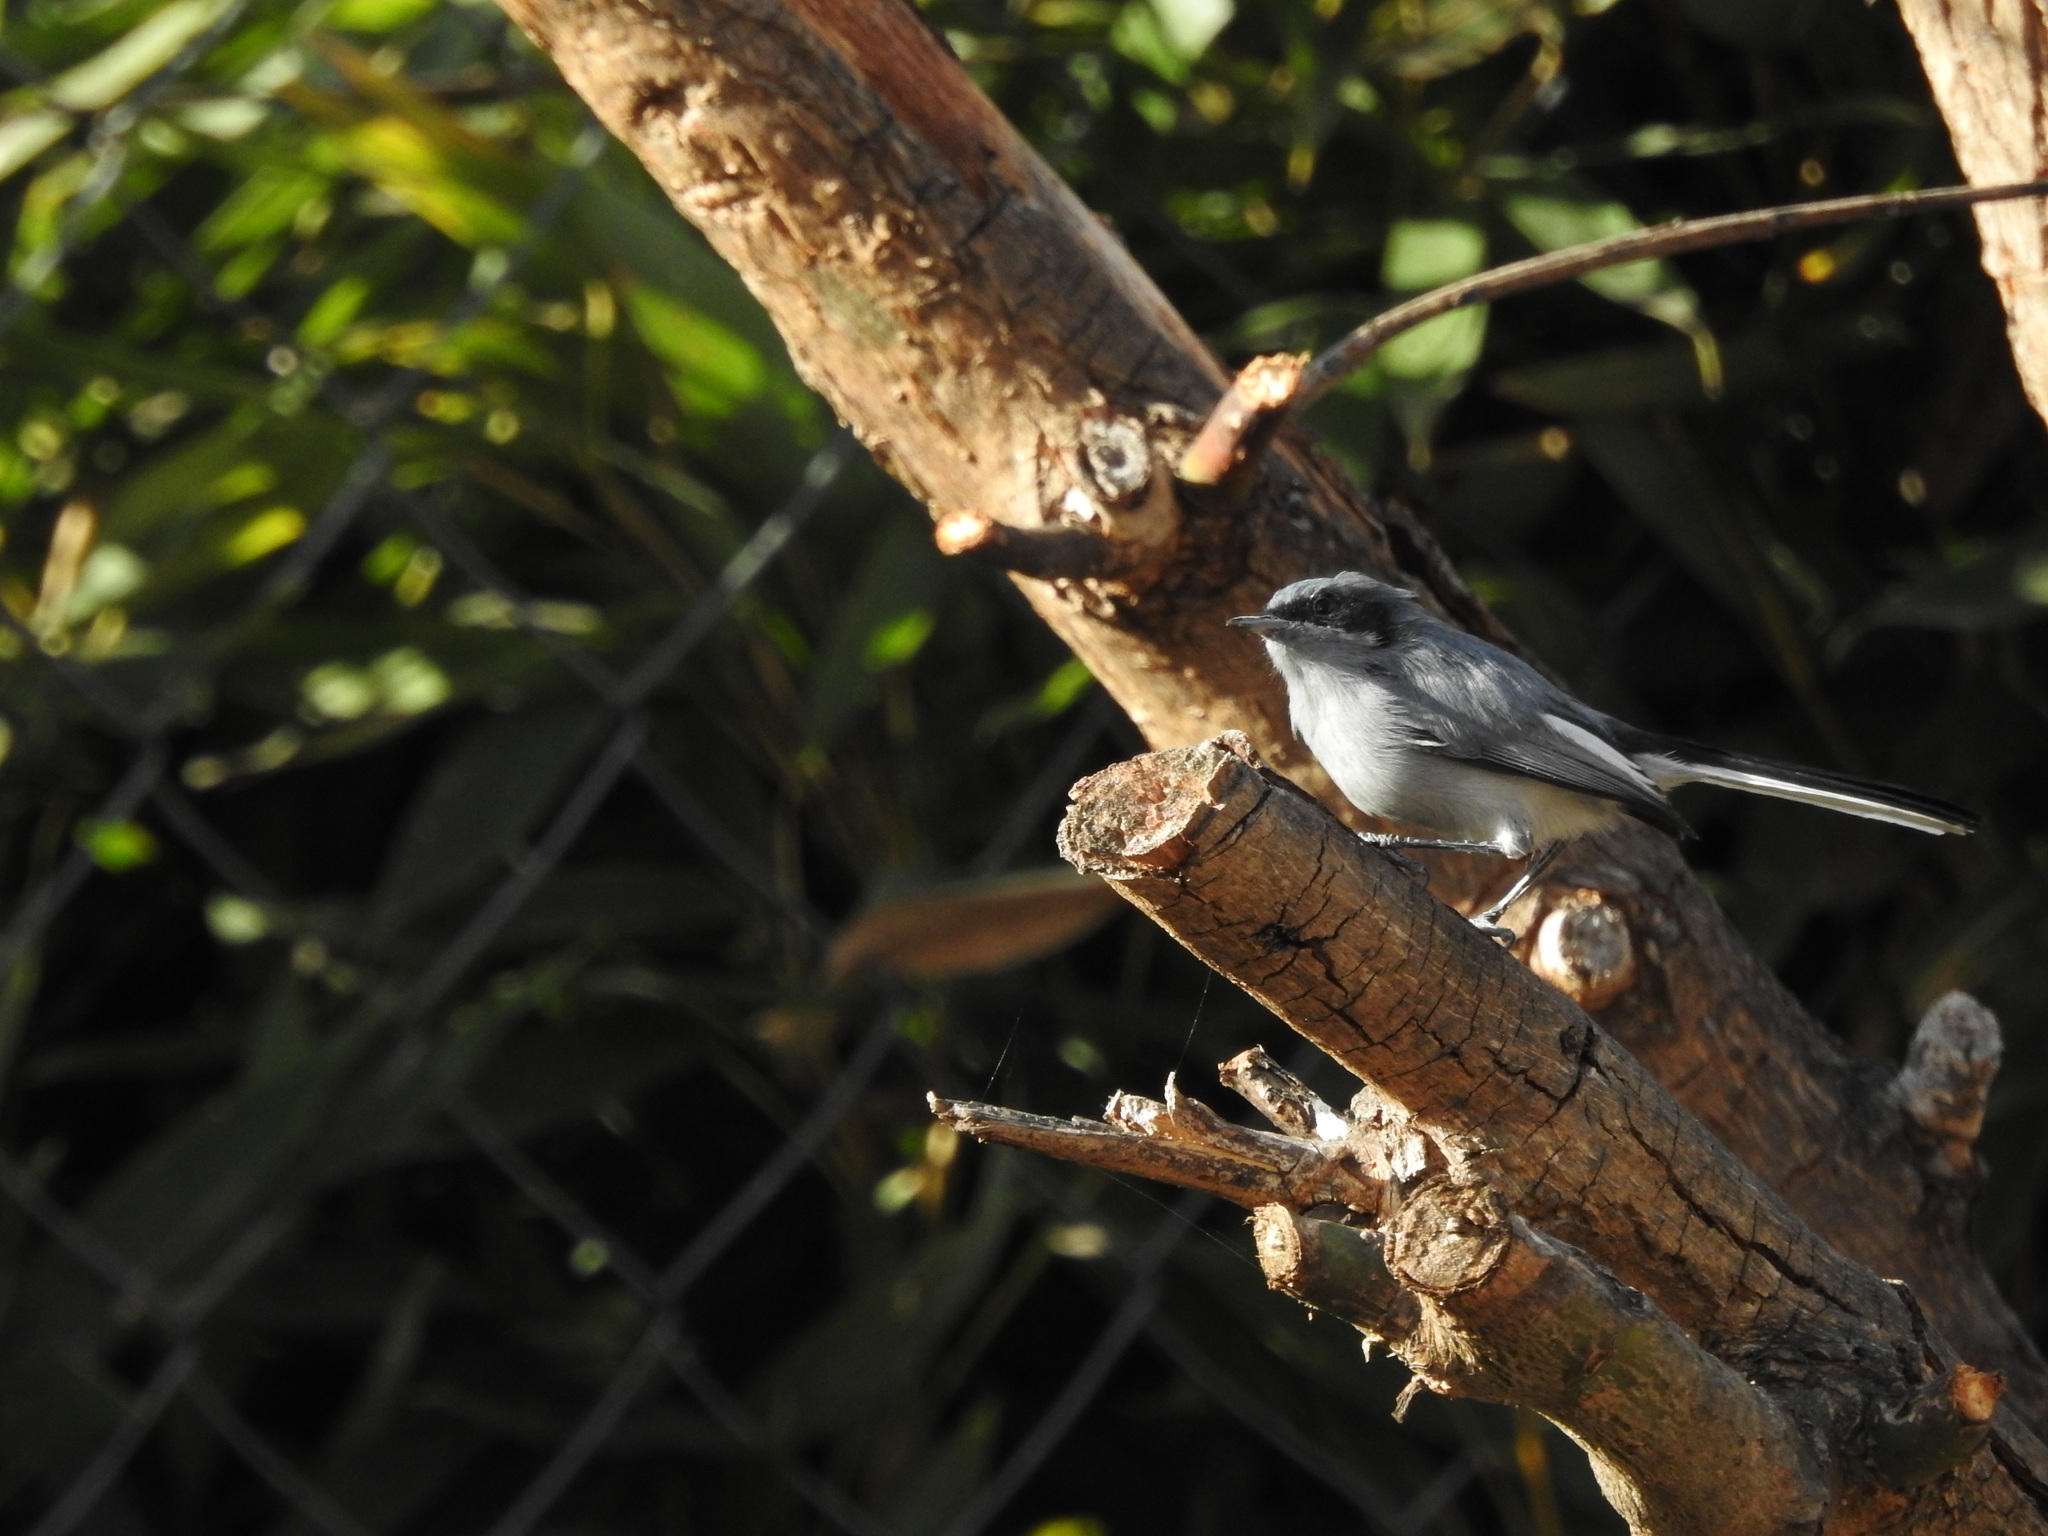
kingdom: Animalia
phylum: Chordata
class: Aves
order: Passeriformes
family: Polioptilidae
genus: Polioptila
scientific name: Polioptila dumicola
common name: Masked gnatcatcher
